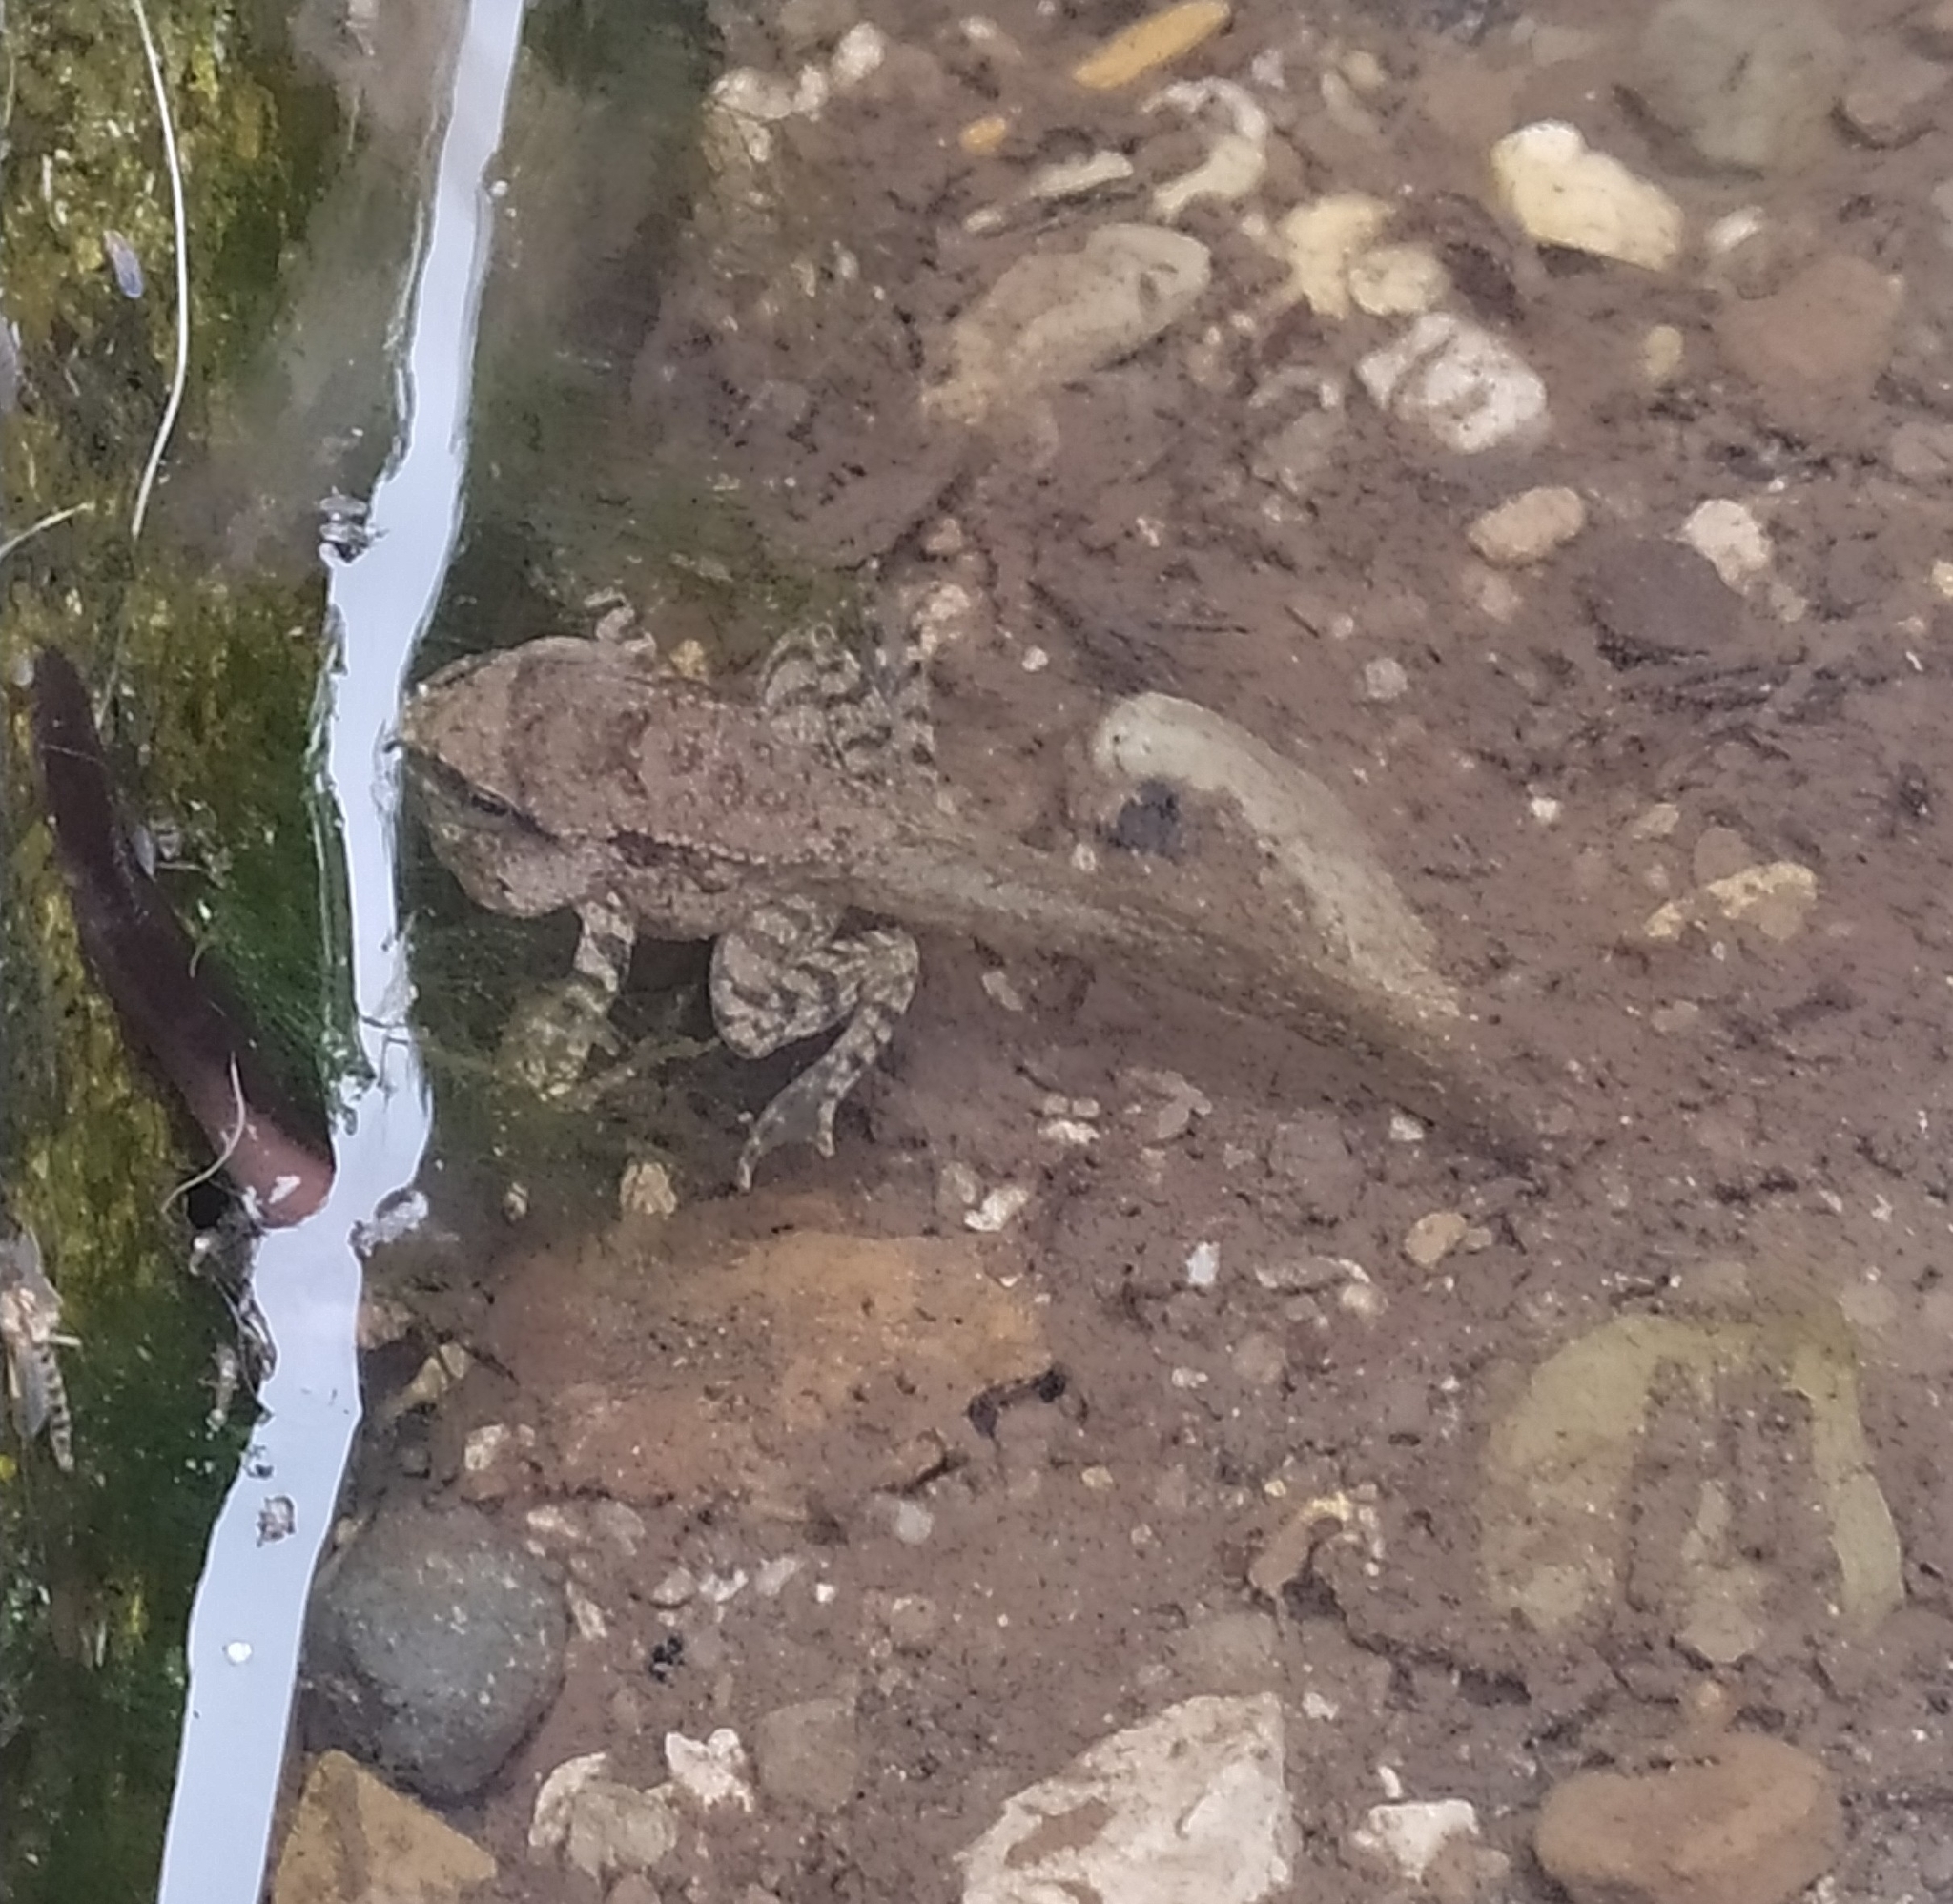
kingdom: Animalia
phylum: Chordata
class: Amphibia
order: Anura
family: Ranidae
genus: Rana
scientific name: Rana italica
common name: Italian stream frog
